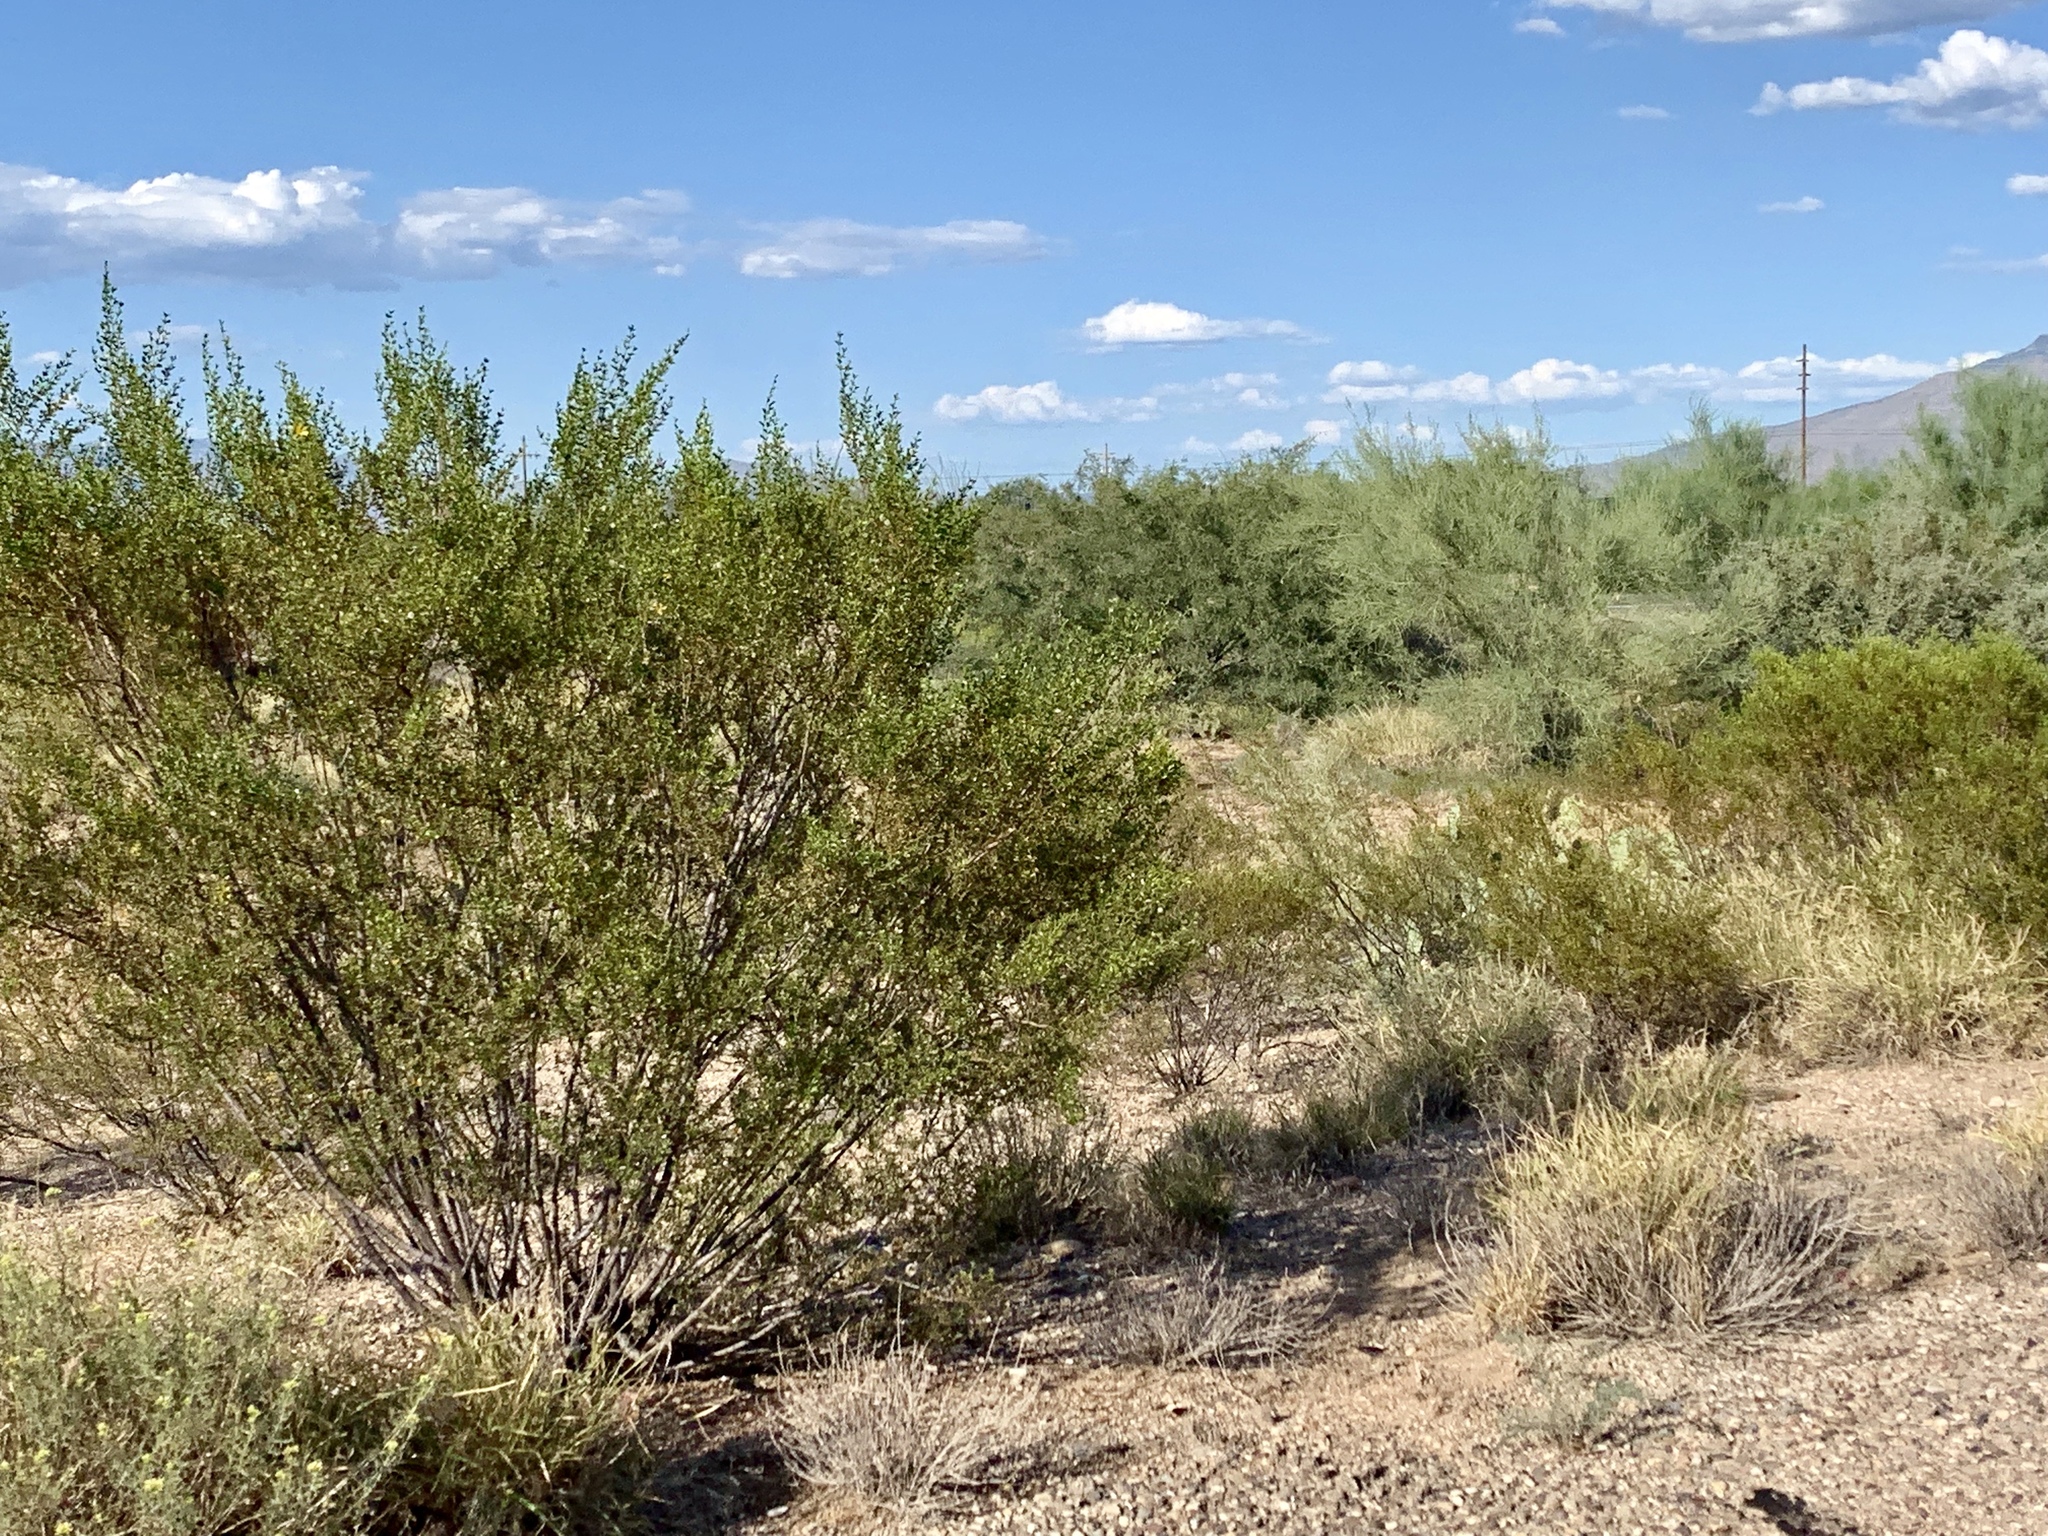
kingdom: Plantae
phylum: Tracheophyta
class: Magnoliopsida
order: Zygophyllales
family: Zygophyllaceae
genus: Larrea
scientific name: Larrea tridentata
